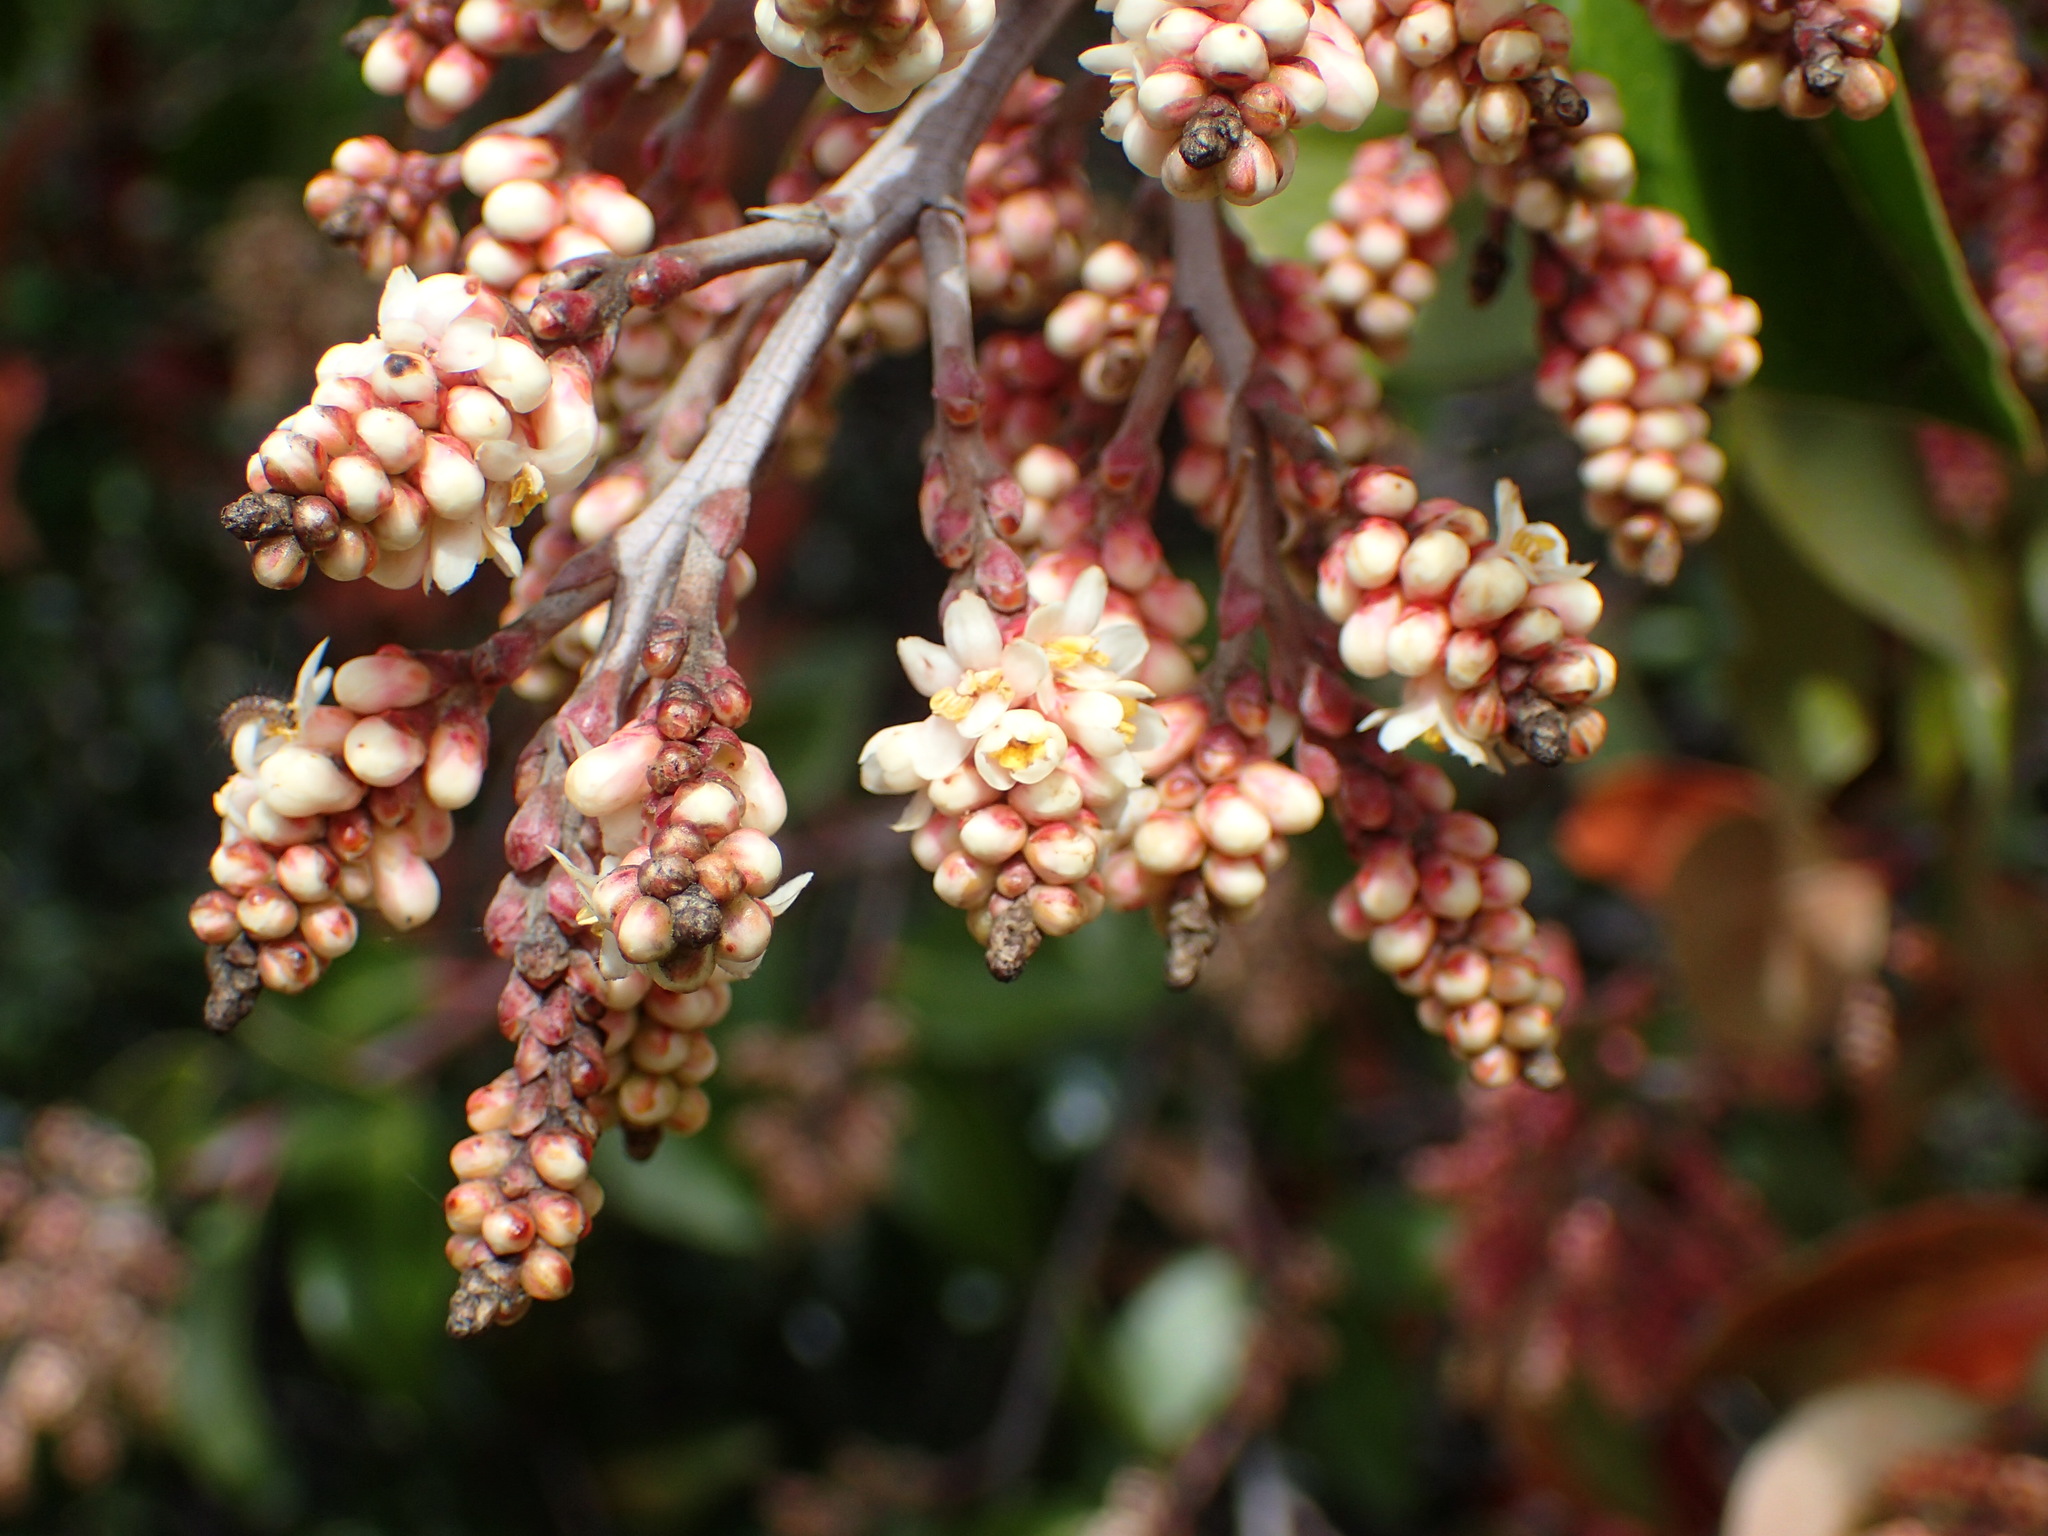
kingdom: Plantae
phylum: Tracheophyta
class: Magnoliopsida
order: Sapindales
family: Anacardiaceae
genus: Rhus
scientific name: Rhus ovata
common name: Sugar sumac
